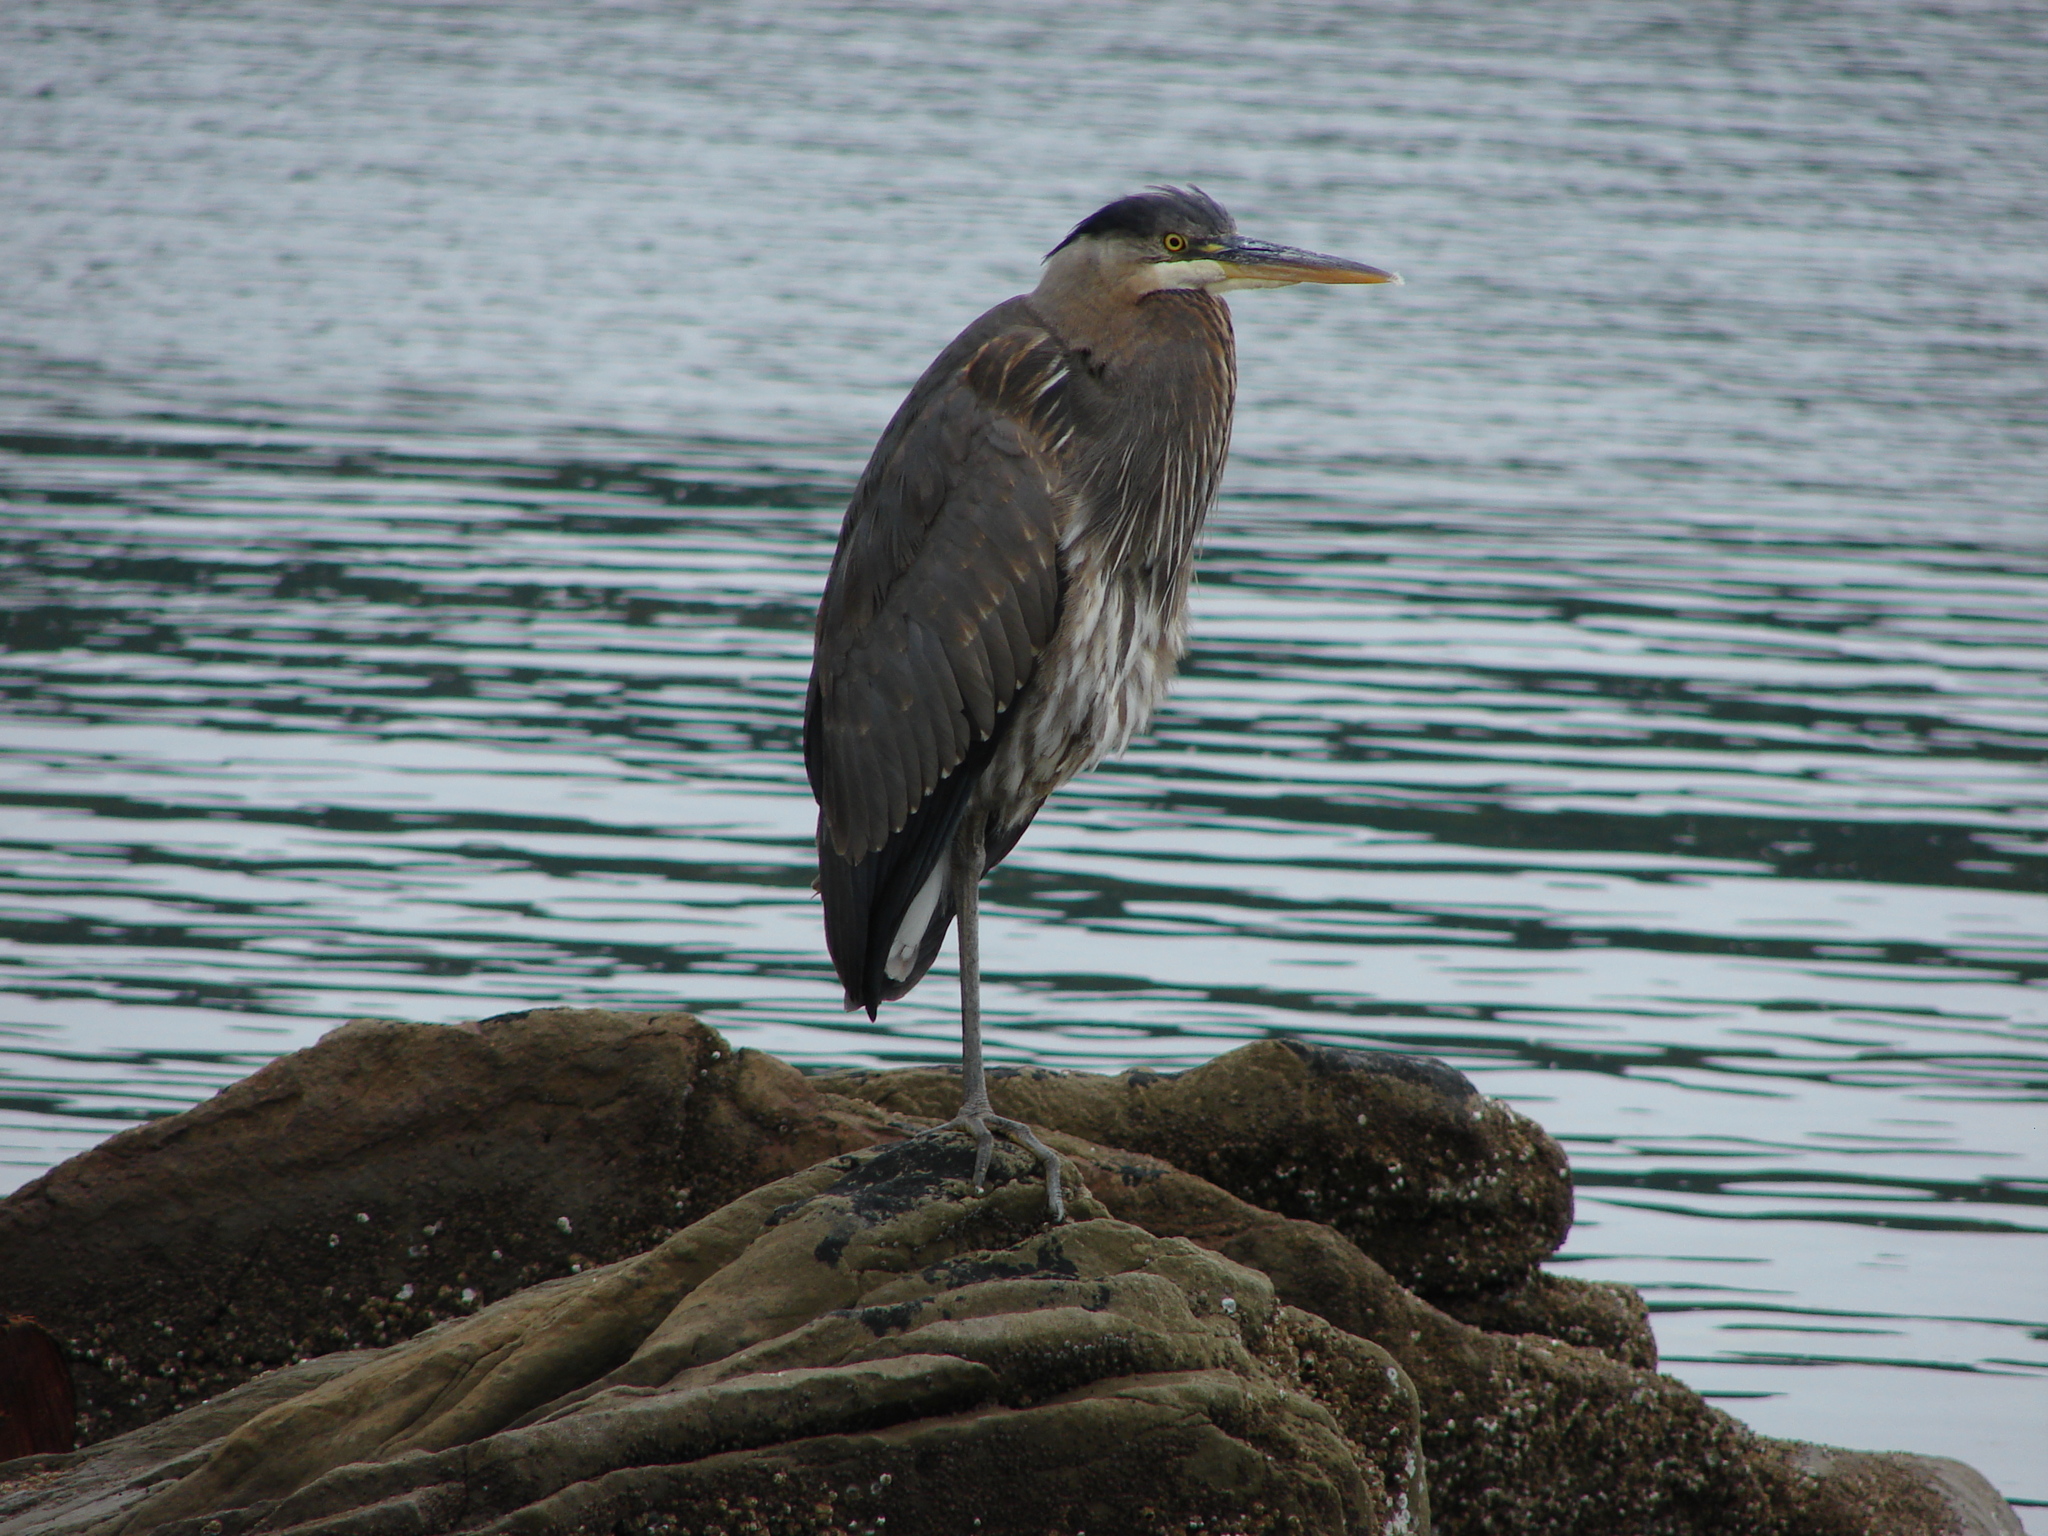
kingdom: Animalia
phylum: Chordata
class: Aves
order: Pelecaniformes
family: Ardeidae
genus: Ardea
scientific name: Ardea herodias
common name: Great blue heron
